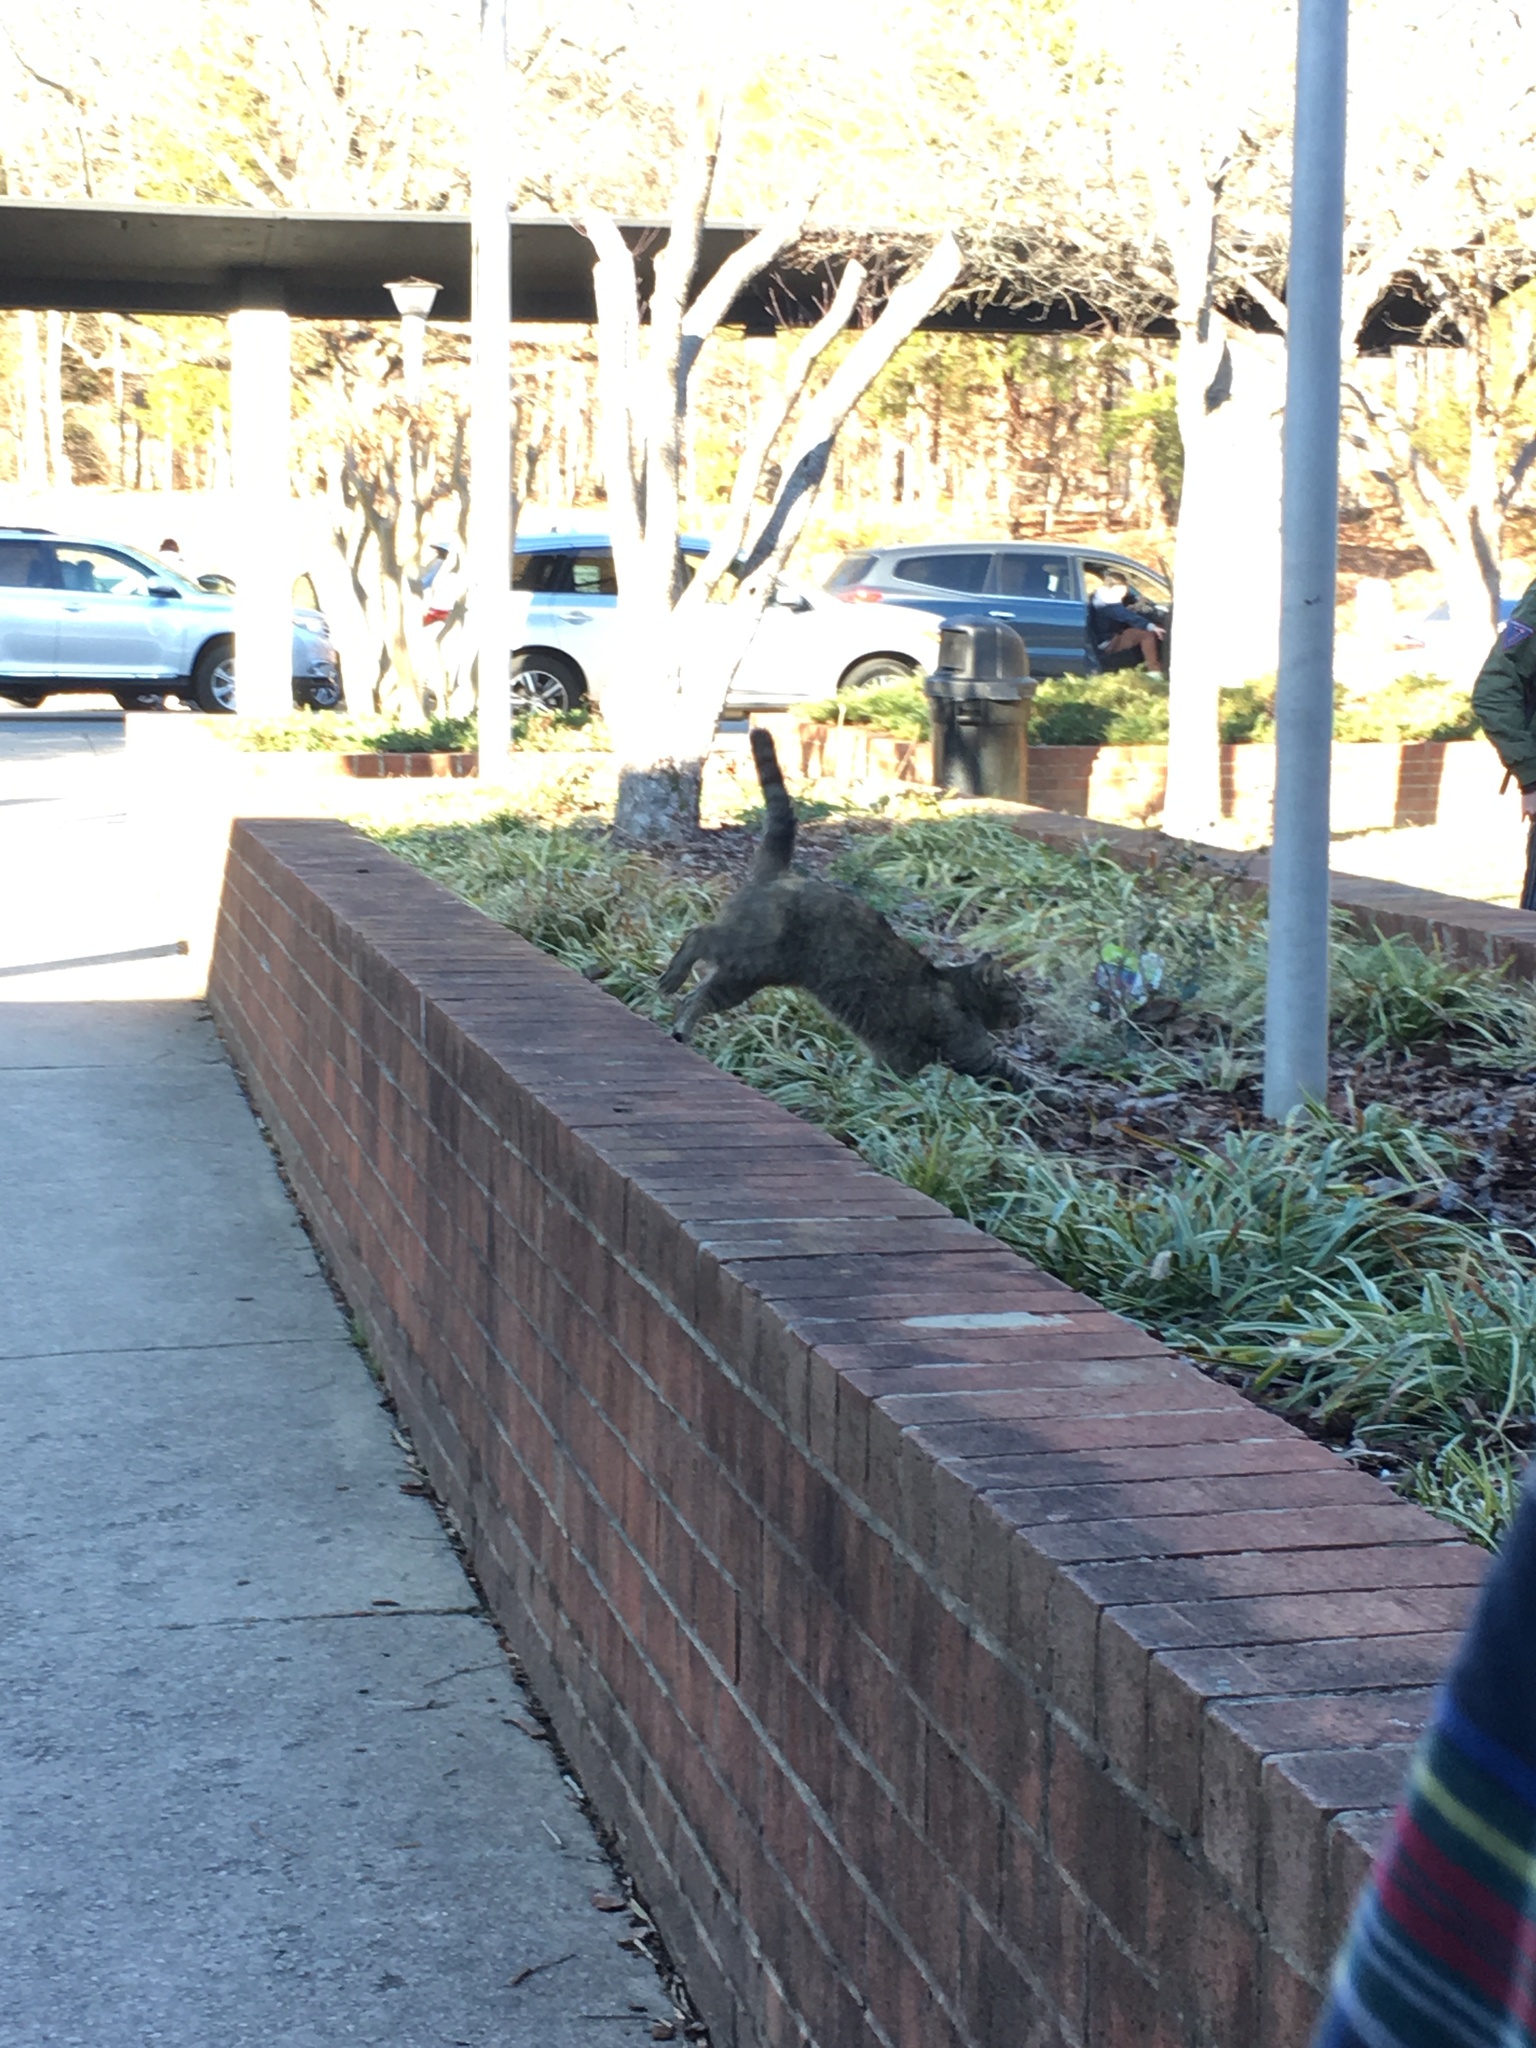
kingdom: Animalia
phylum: Chordata
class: Mammalia
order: Carnivora
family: Felidae
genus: Felis
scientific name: Felis catus
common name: Domestic cat
